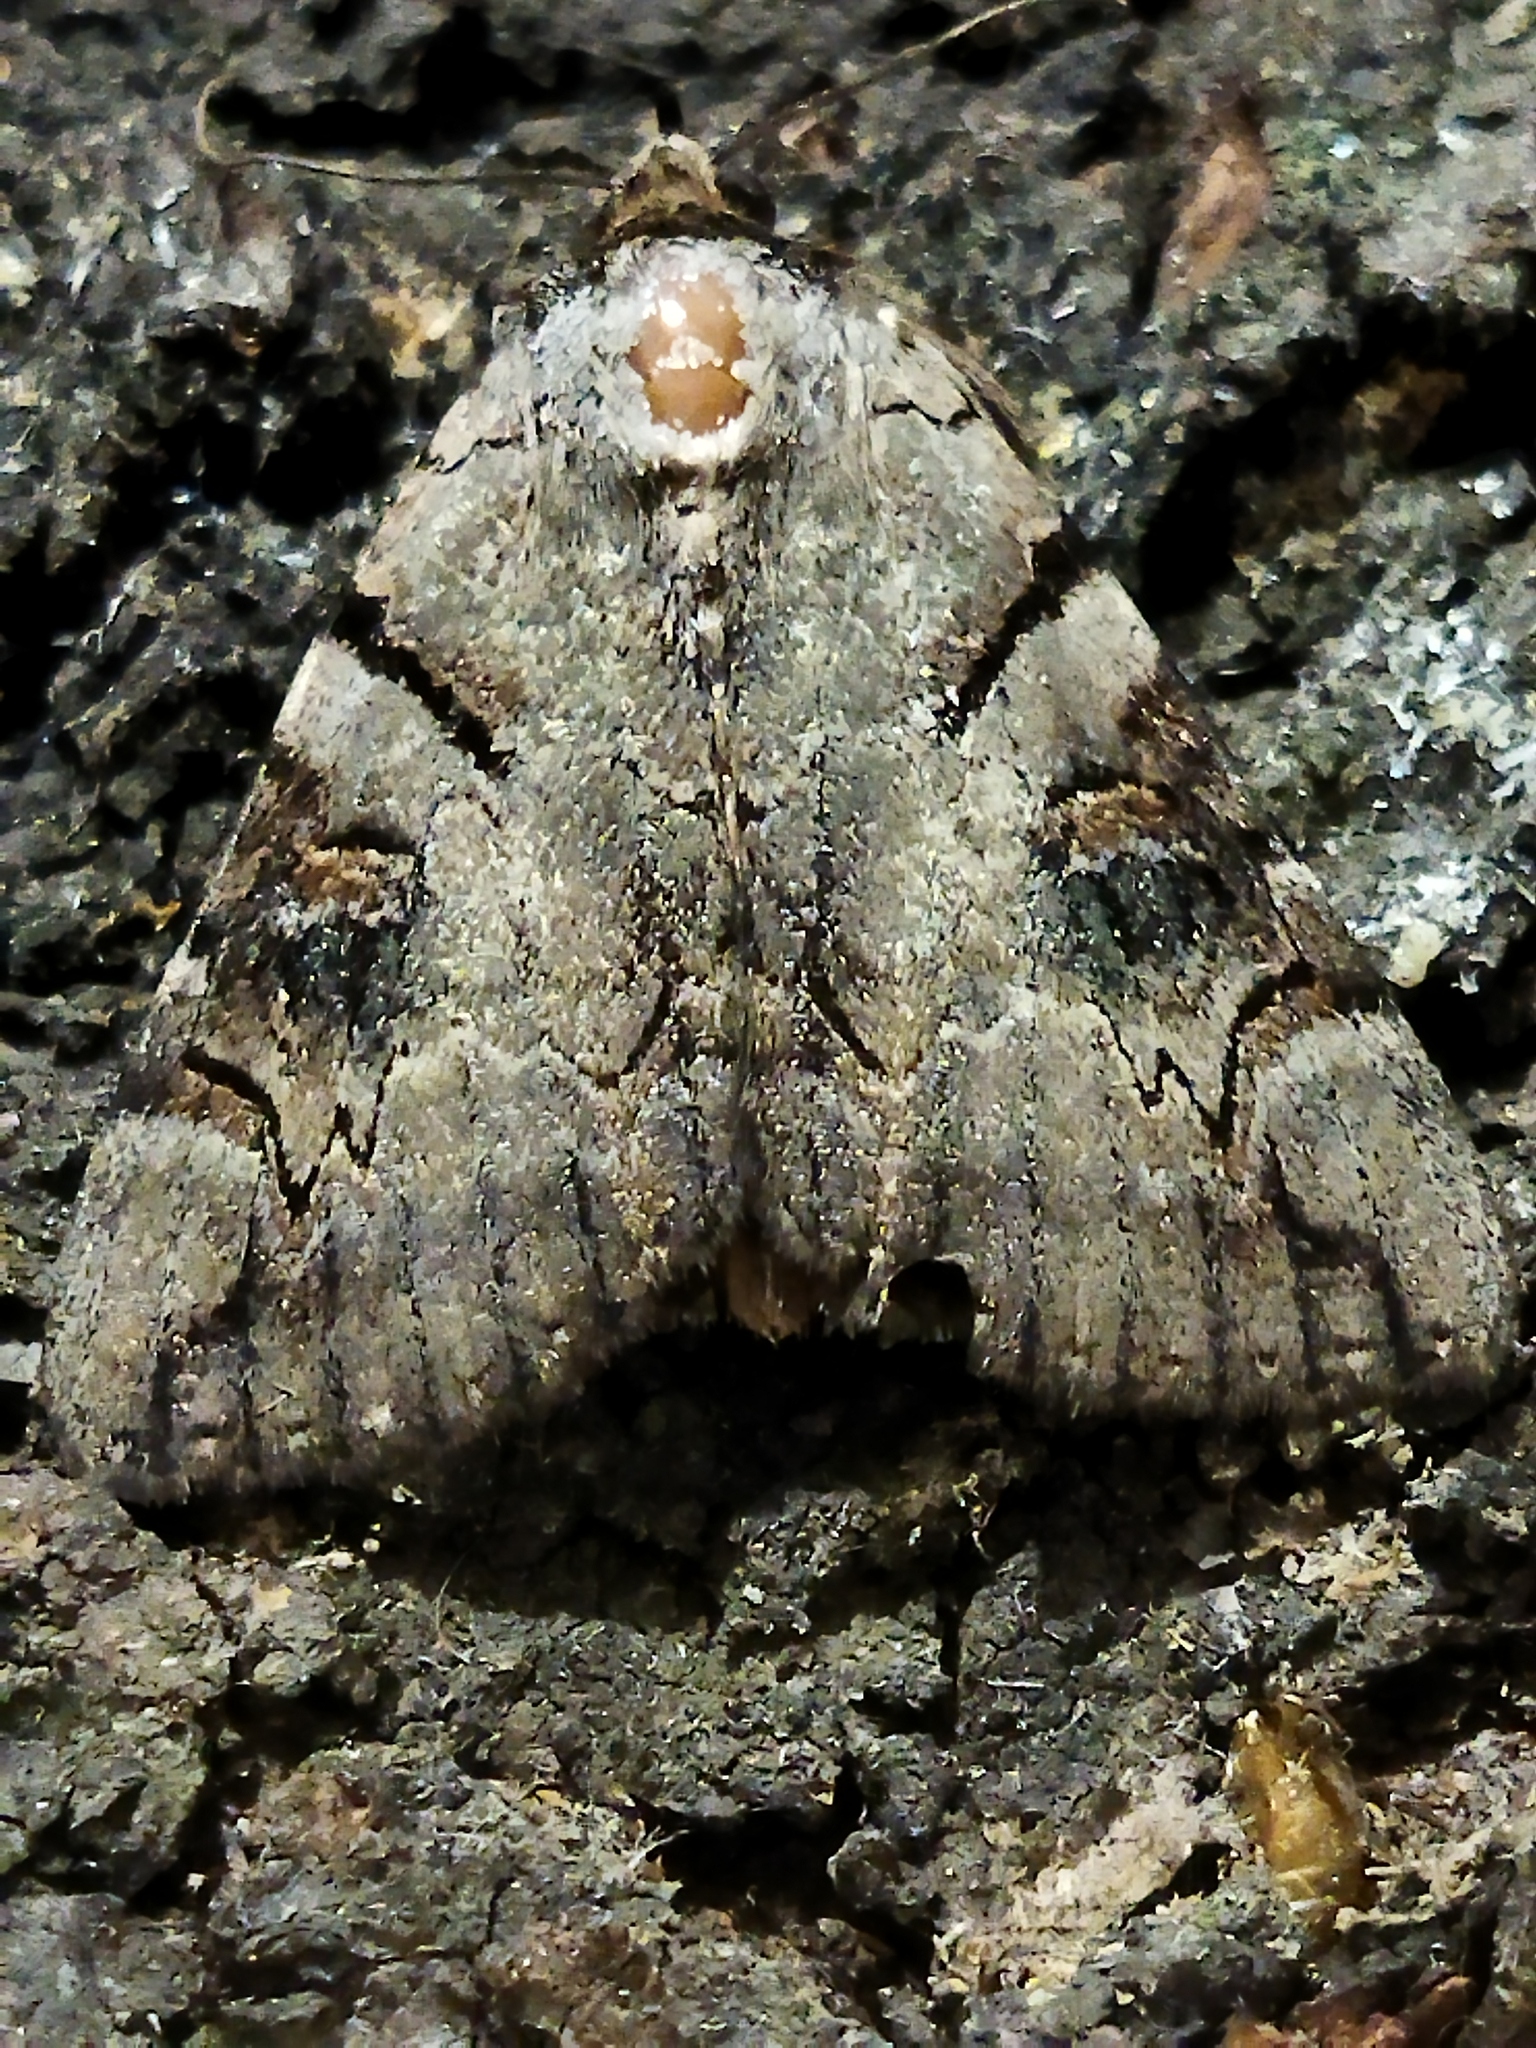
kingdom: Animalia
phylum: Arthropoda
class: Insecta
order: Lepidoptera
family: Erebidae
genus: Catocala
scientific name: Catocala hymenaea
